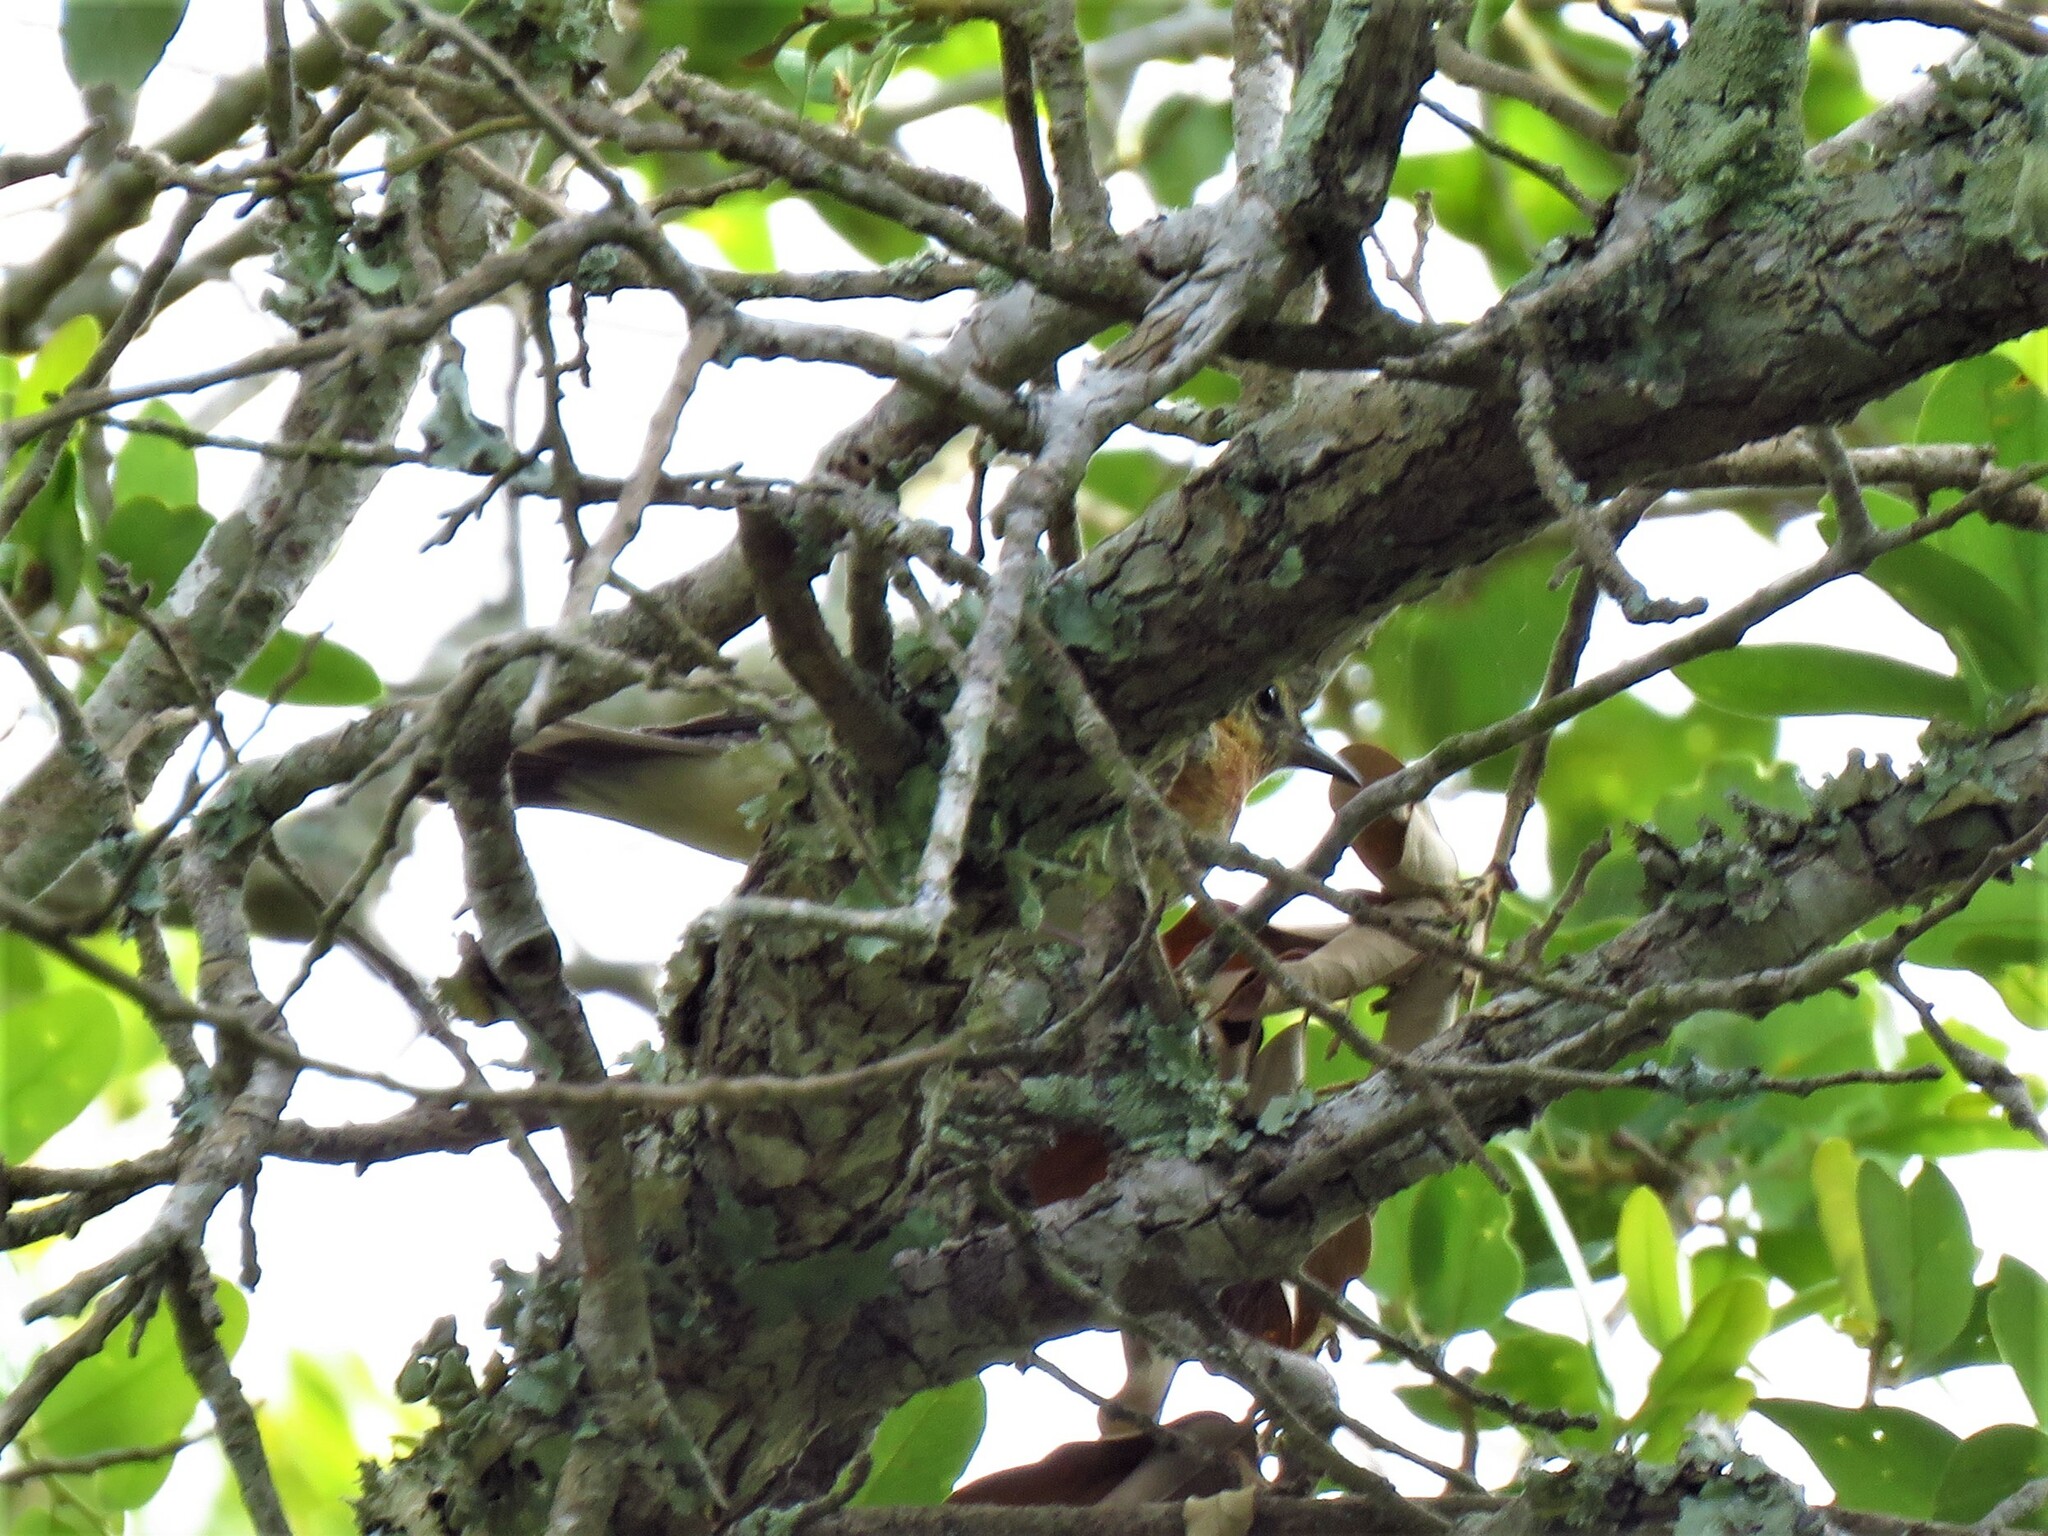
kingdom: Animalia
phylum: Chordata
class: Aves
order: Passeriformes
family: Parulidae
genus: Setophaga
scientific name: Setophaga castanea
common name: Bay-breasted warbler
